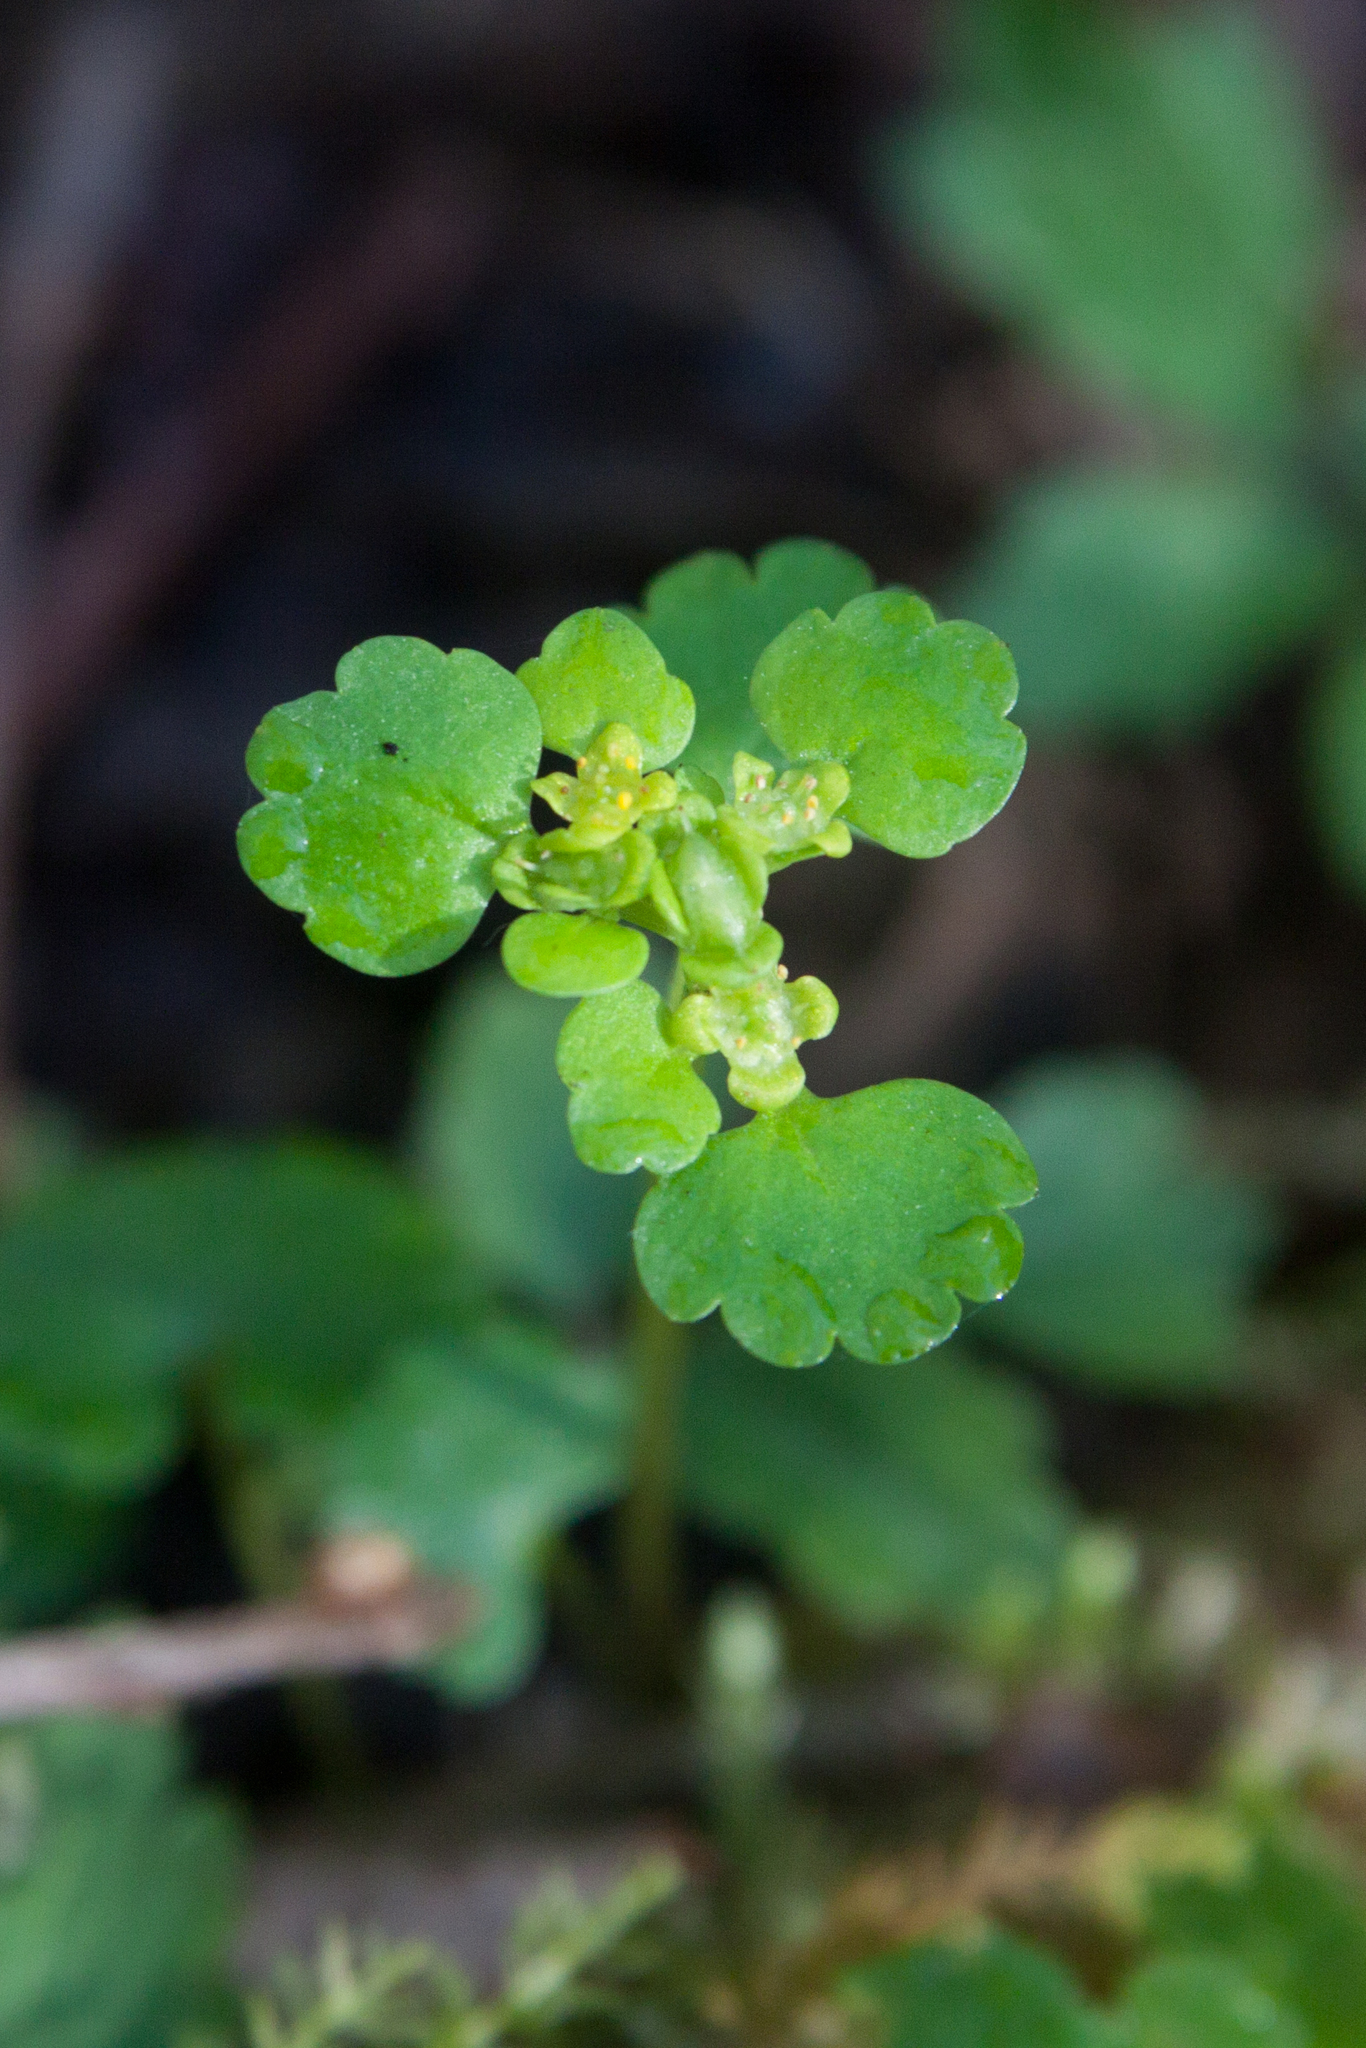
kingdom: Plantae
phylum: Tracheophyta
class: Magnoliopsida
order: Saxifragales
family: Saxifragaceae
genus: Chrysosplenium
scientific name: Chrysosplenium alternifolium
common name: Alternate-leaved golden-saxifrage
